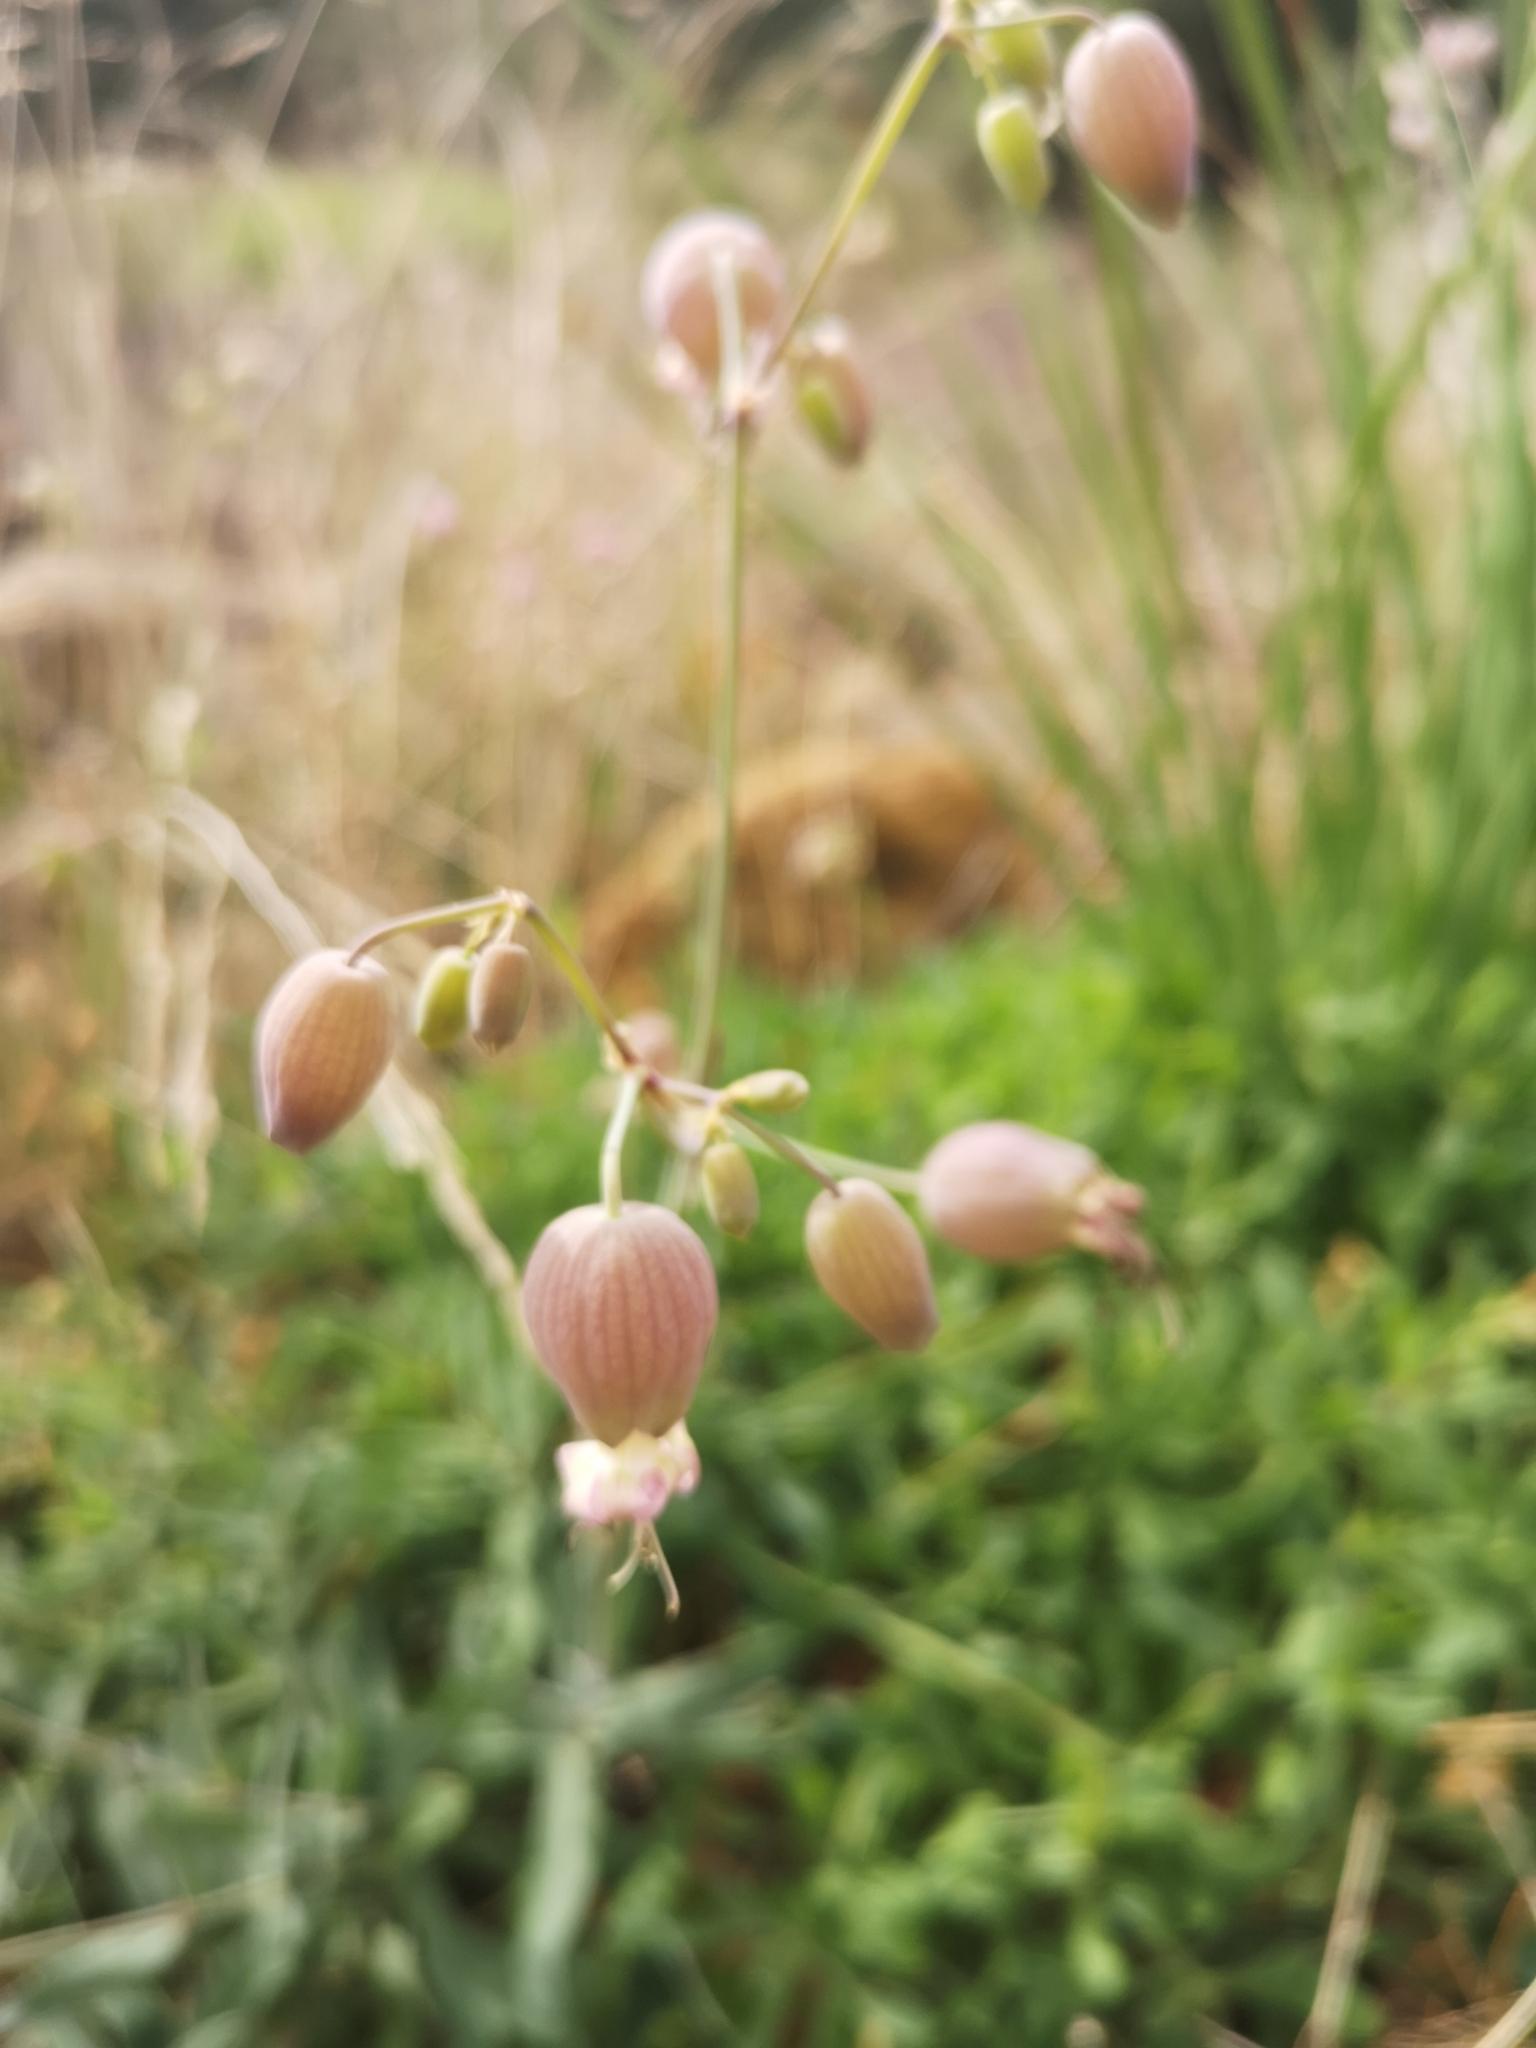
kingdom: Plantae
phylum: Tracheophyta
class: Magnoliopsida
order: Caryophyllales
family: Caryophyllaceae
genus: Silene
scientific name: Silene vulgaris
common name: Bladder campion
